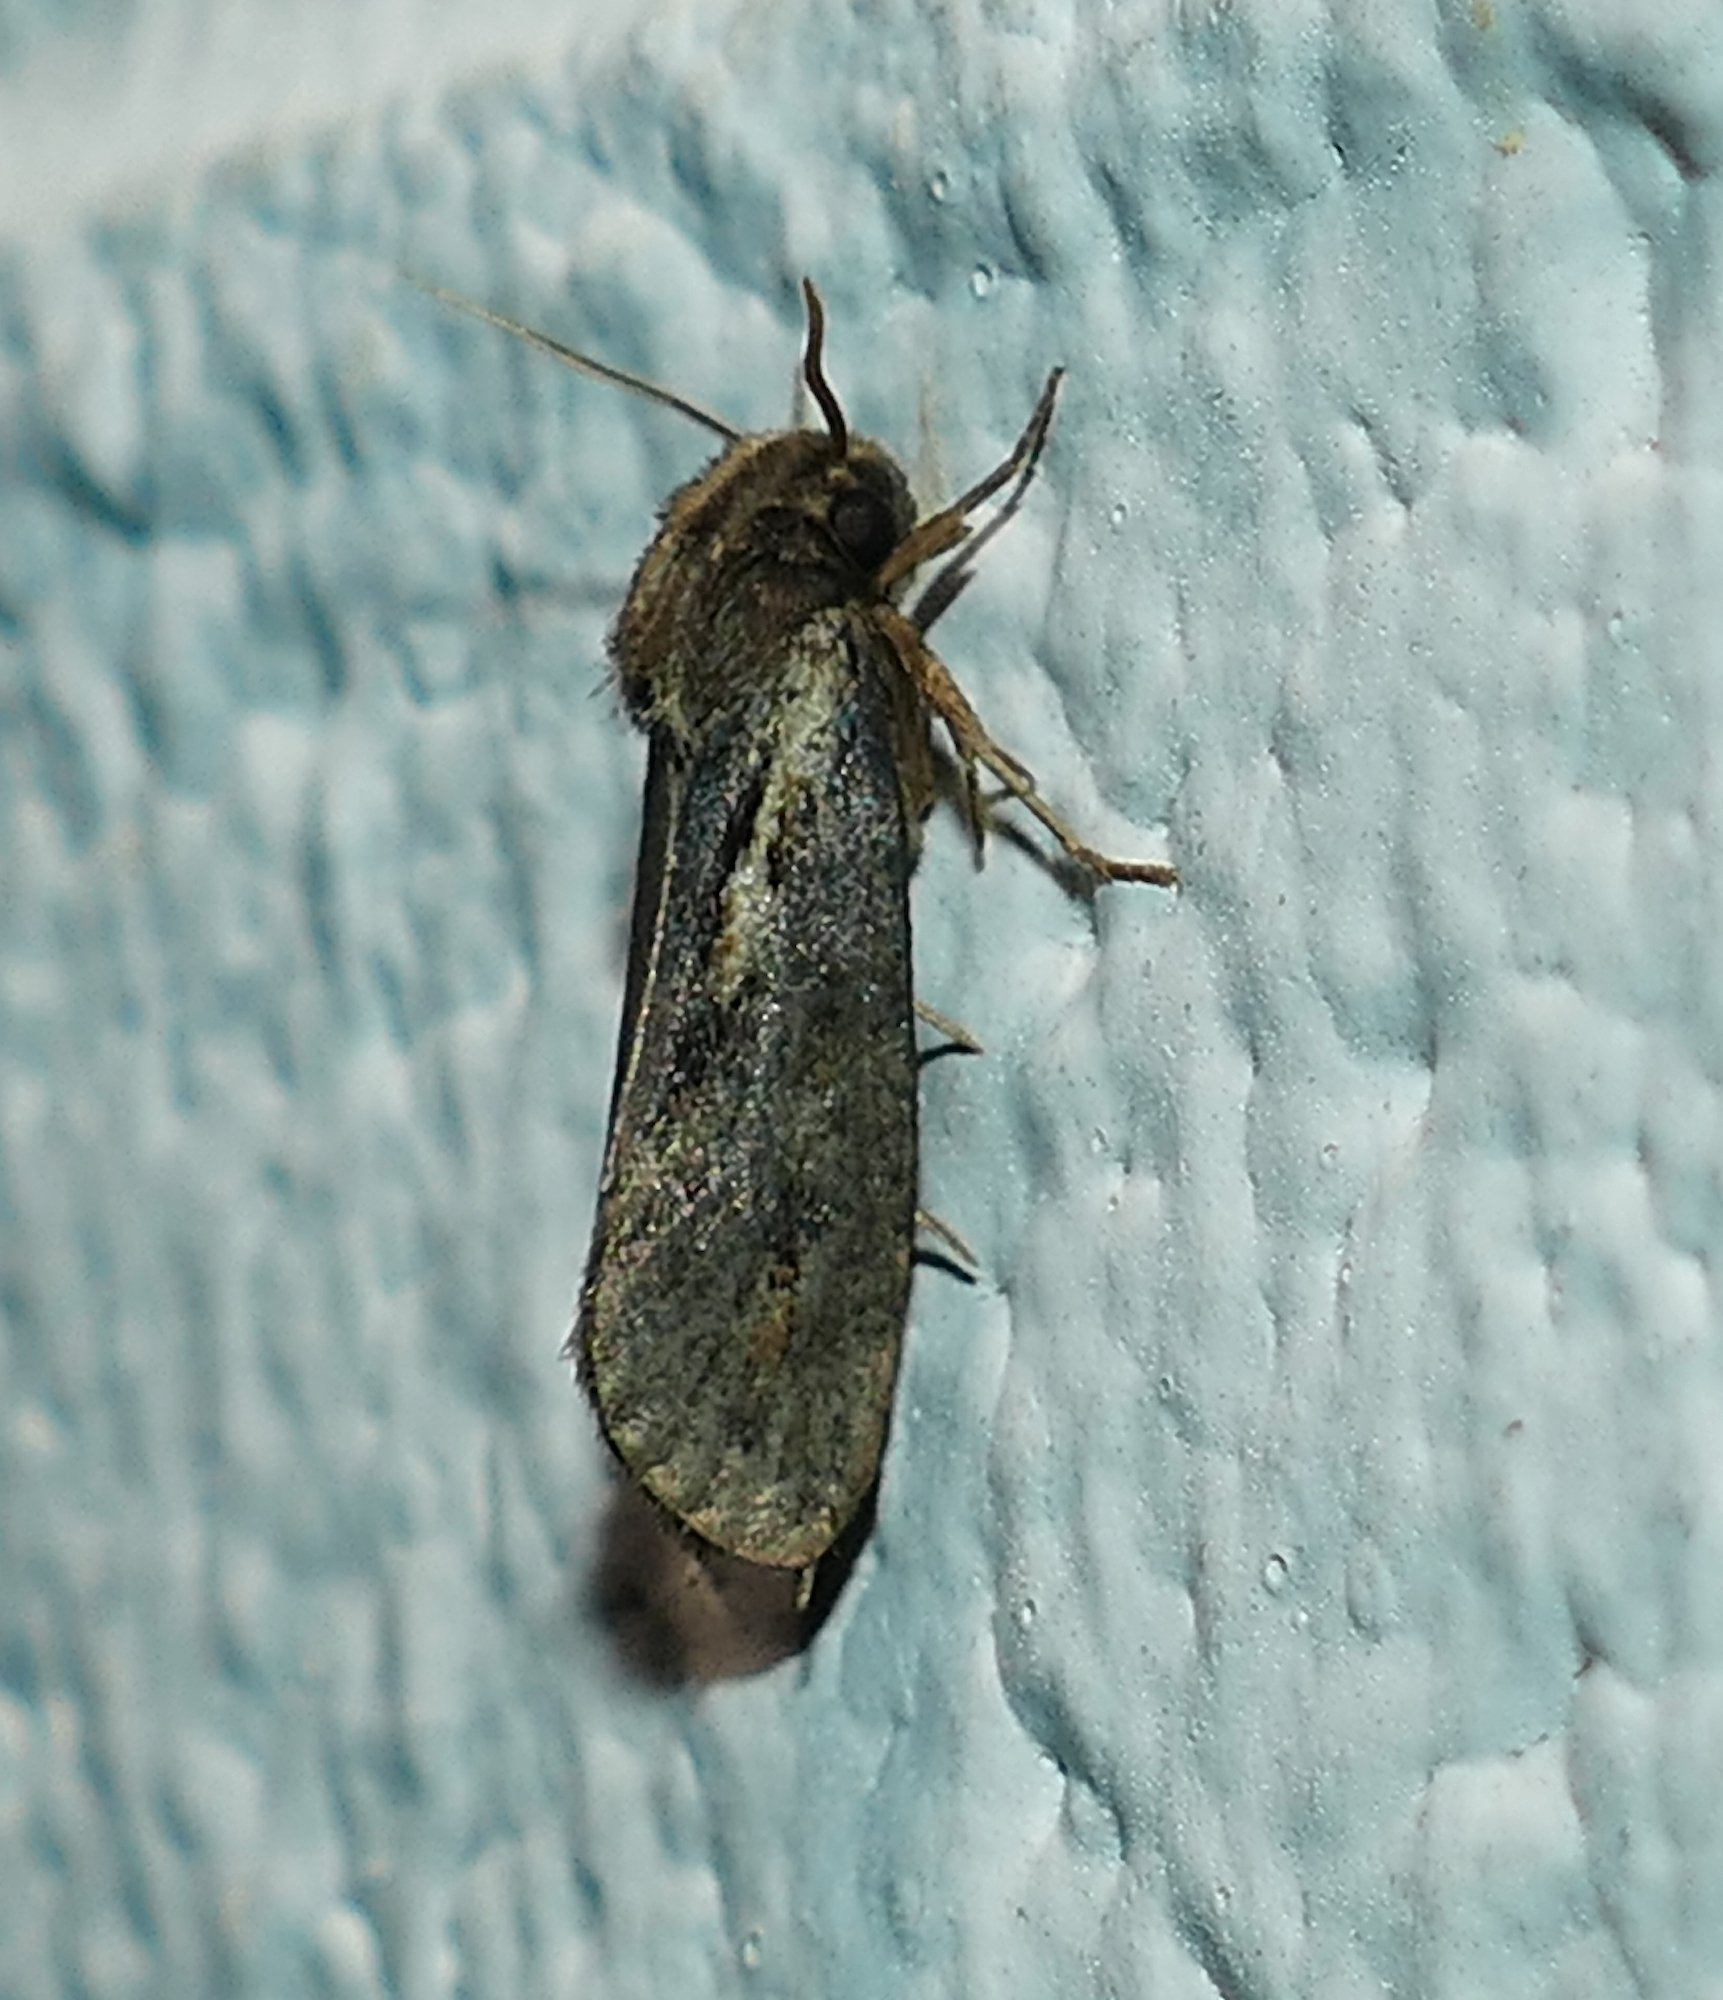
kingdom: Animalia
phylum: Arthropoda
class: Insecta
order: Lepidoptera
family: Tineidae
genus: Acrolophus
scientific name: Acrolophus popeanella
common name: Clemens' grass tubeworm moth
